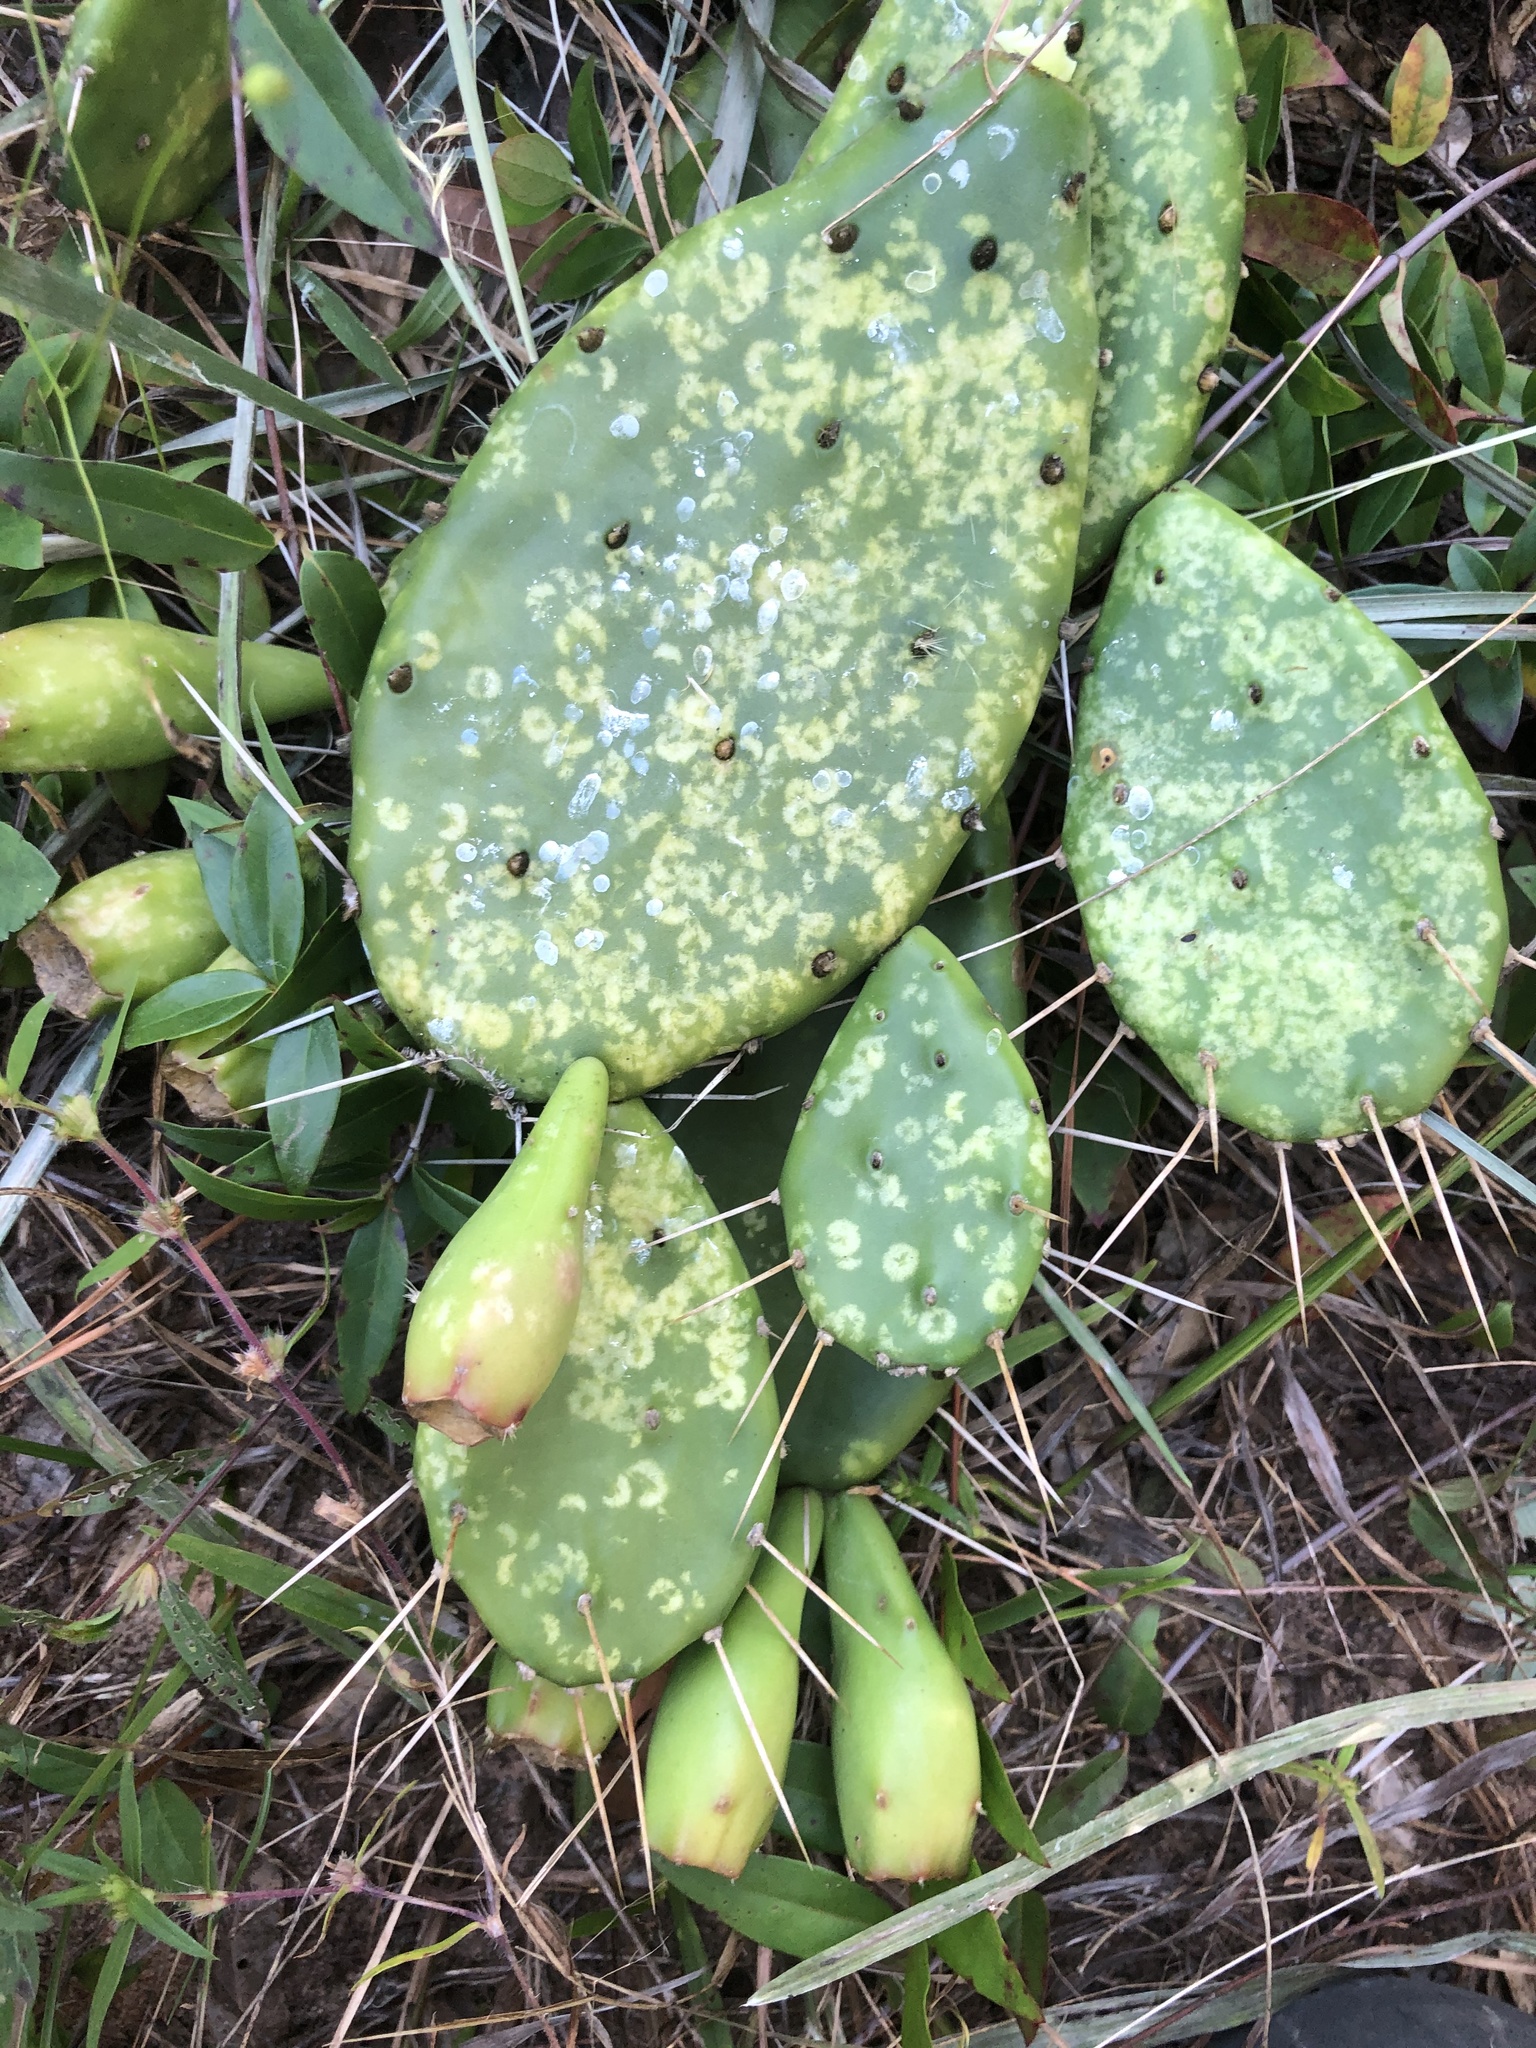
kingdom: Plantae
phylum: Tracheophyta
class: Magnoliopsida
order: Caryophyllales
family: Cactaceae
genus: Opuntia
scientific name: Opuntia mesacantha
